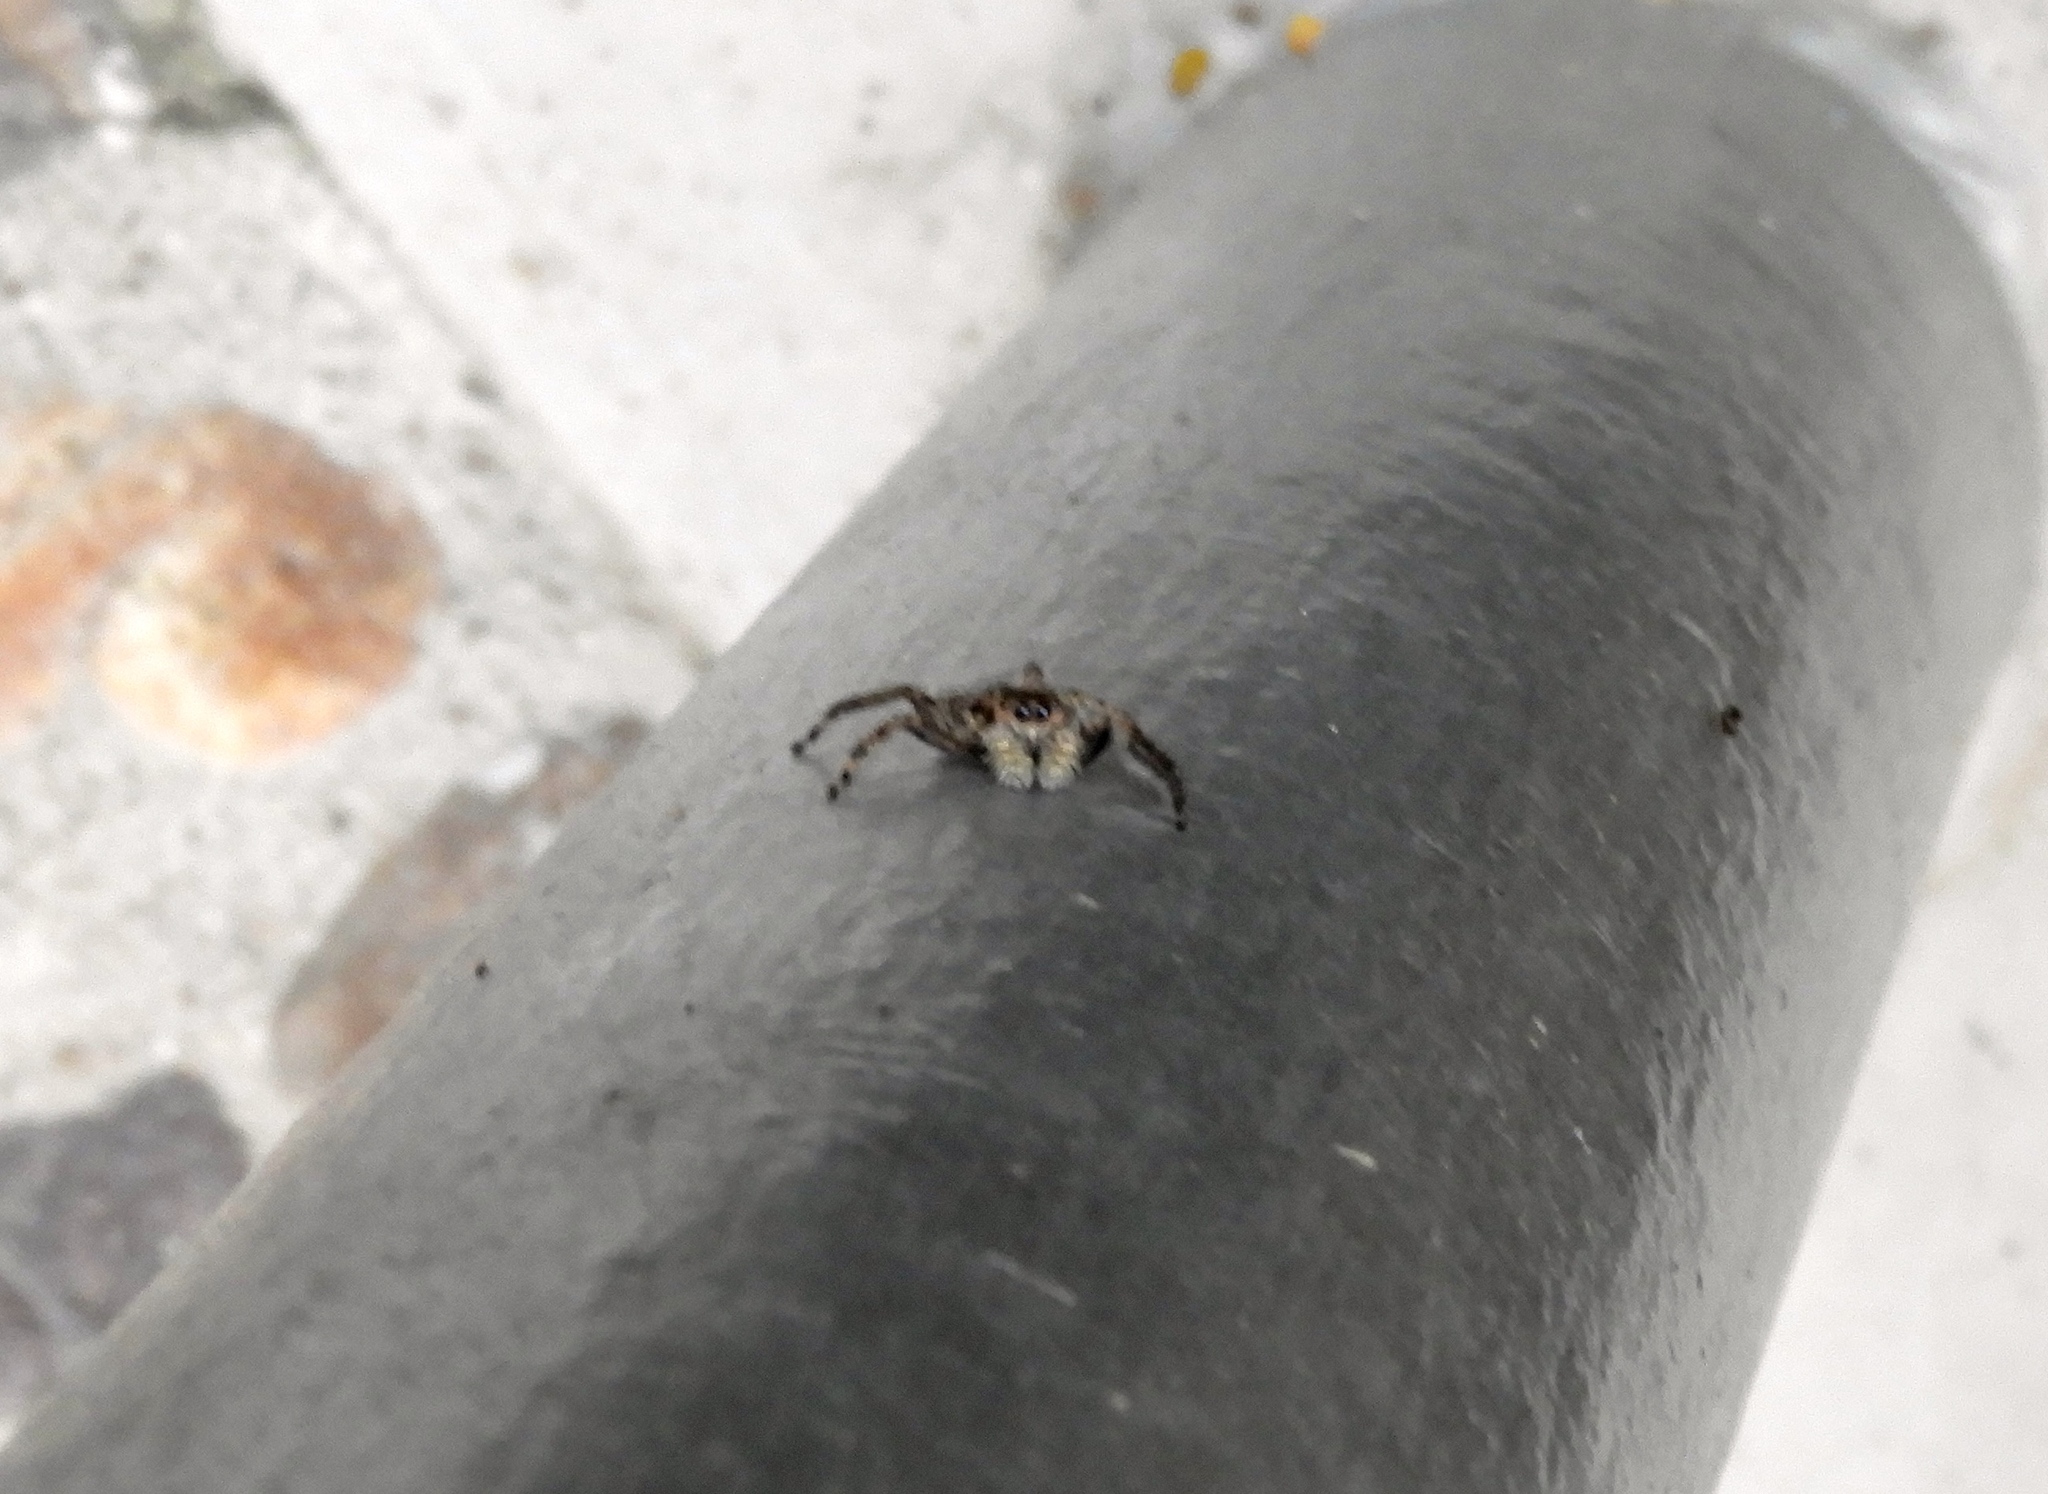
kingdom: Animalia
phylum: Arthropoda
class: Arachnida
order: Araneae
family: Salticidae
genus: Balmaceda
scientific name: Balmaceda
